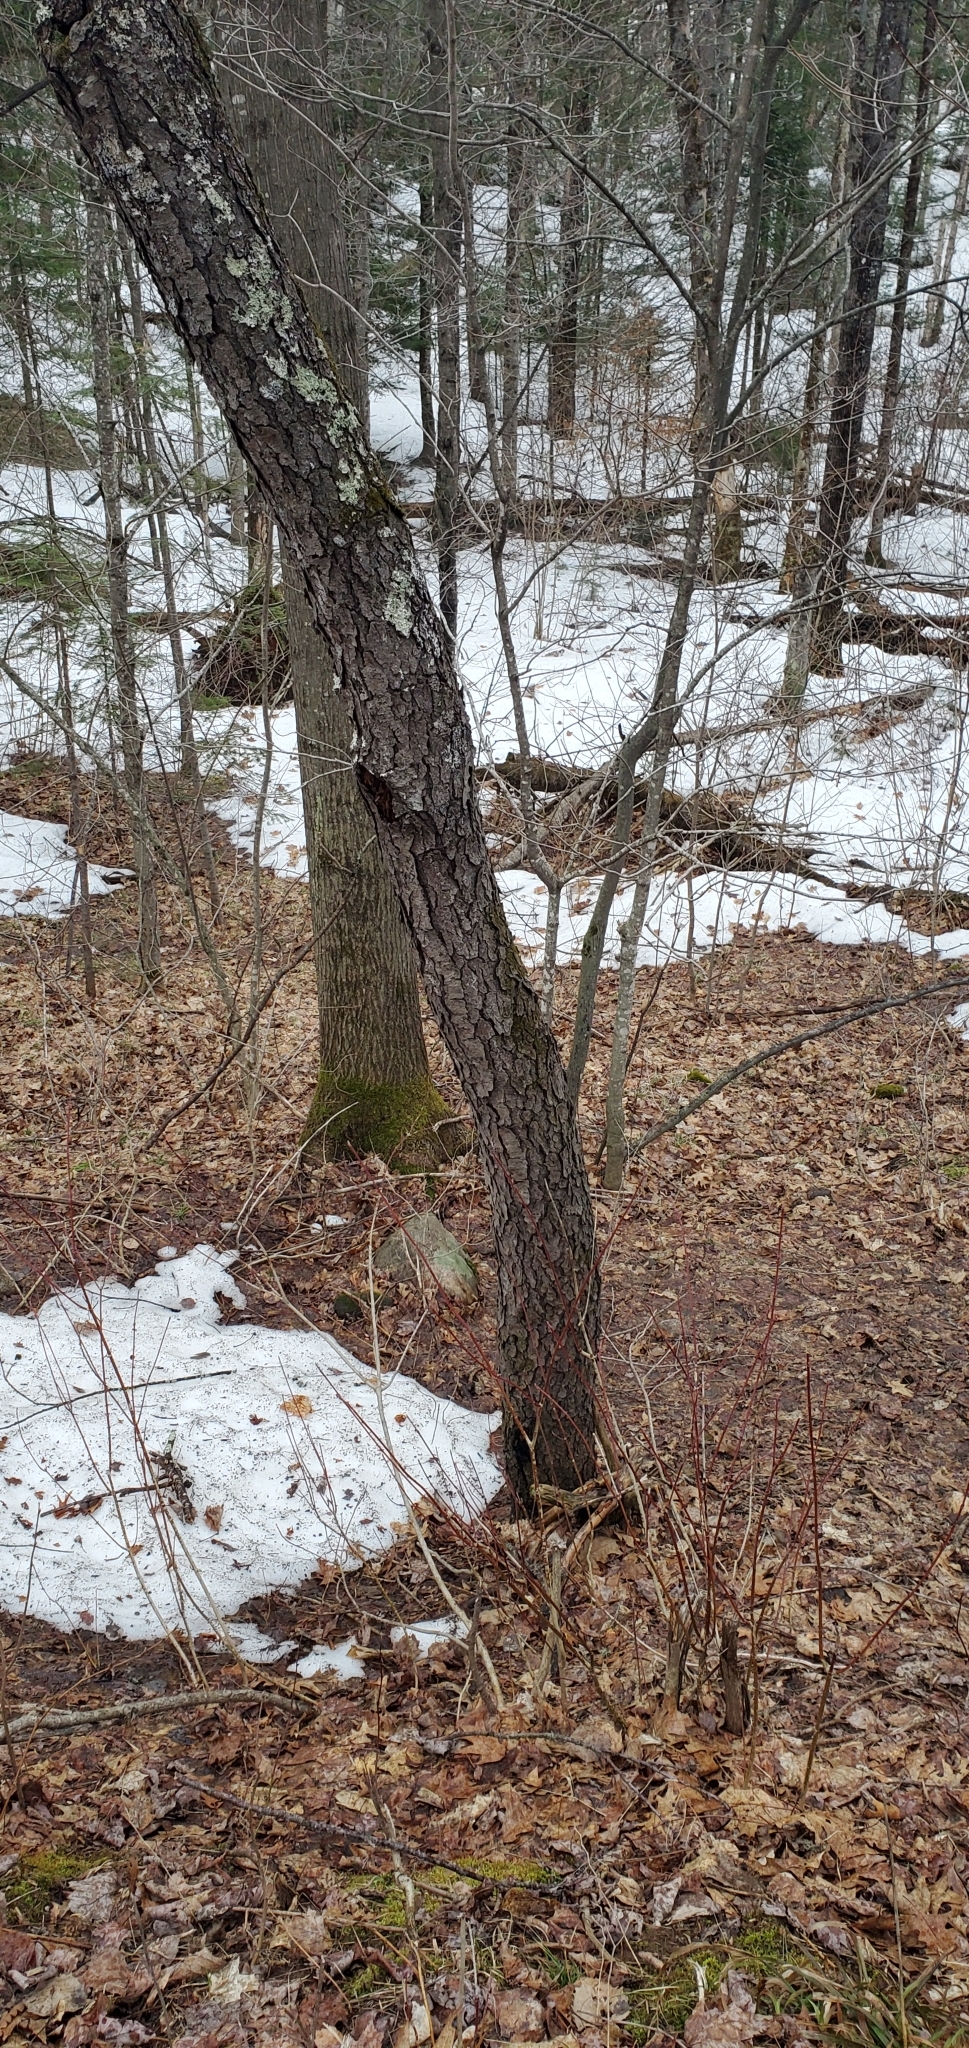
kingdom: Plantae
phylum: Tracheophyta
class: Magnoliopsida
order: Rosales
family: Rosaceae
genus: Prunus
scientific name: Prunus serotina
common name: Black cherry
